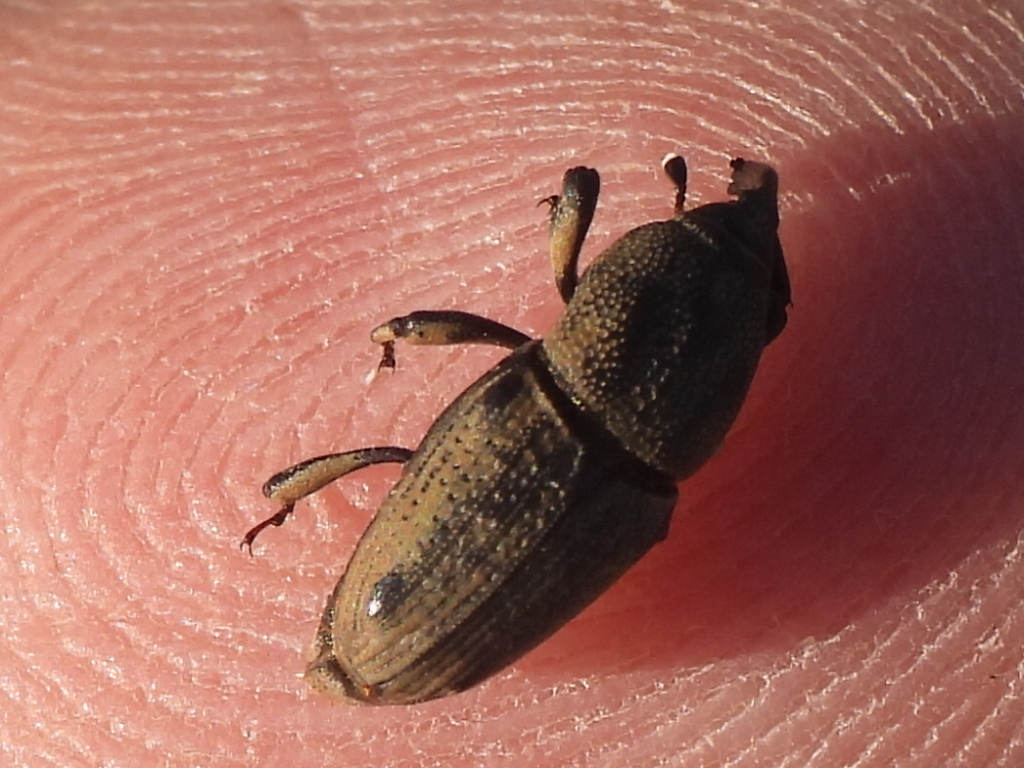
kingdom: Animalia
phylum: Arthropoda
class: Insecta
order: Coleoptera
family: Dryophthoridae
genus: Sphenophorus
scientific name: Sphenophorus venatus
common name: Hunting billbug
